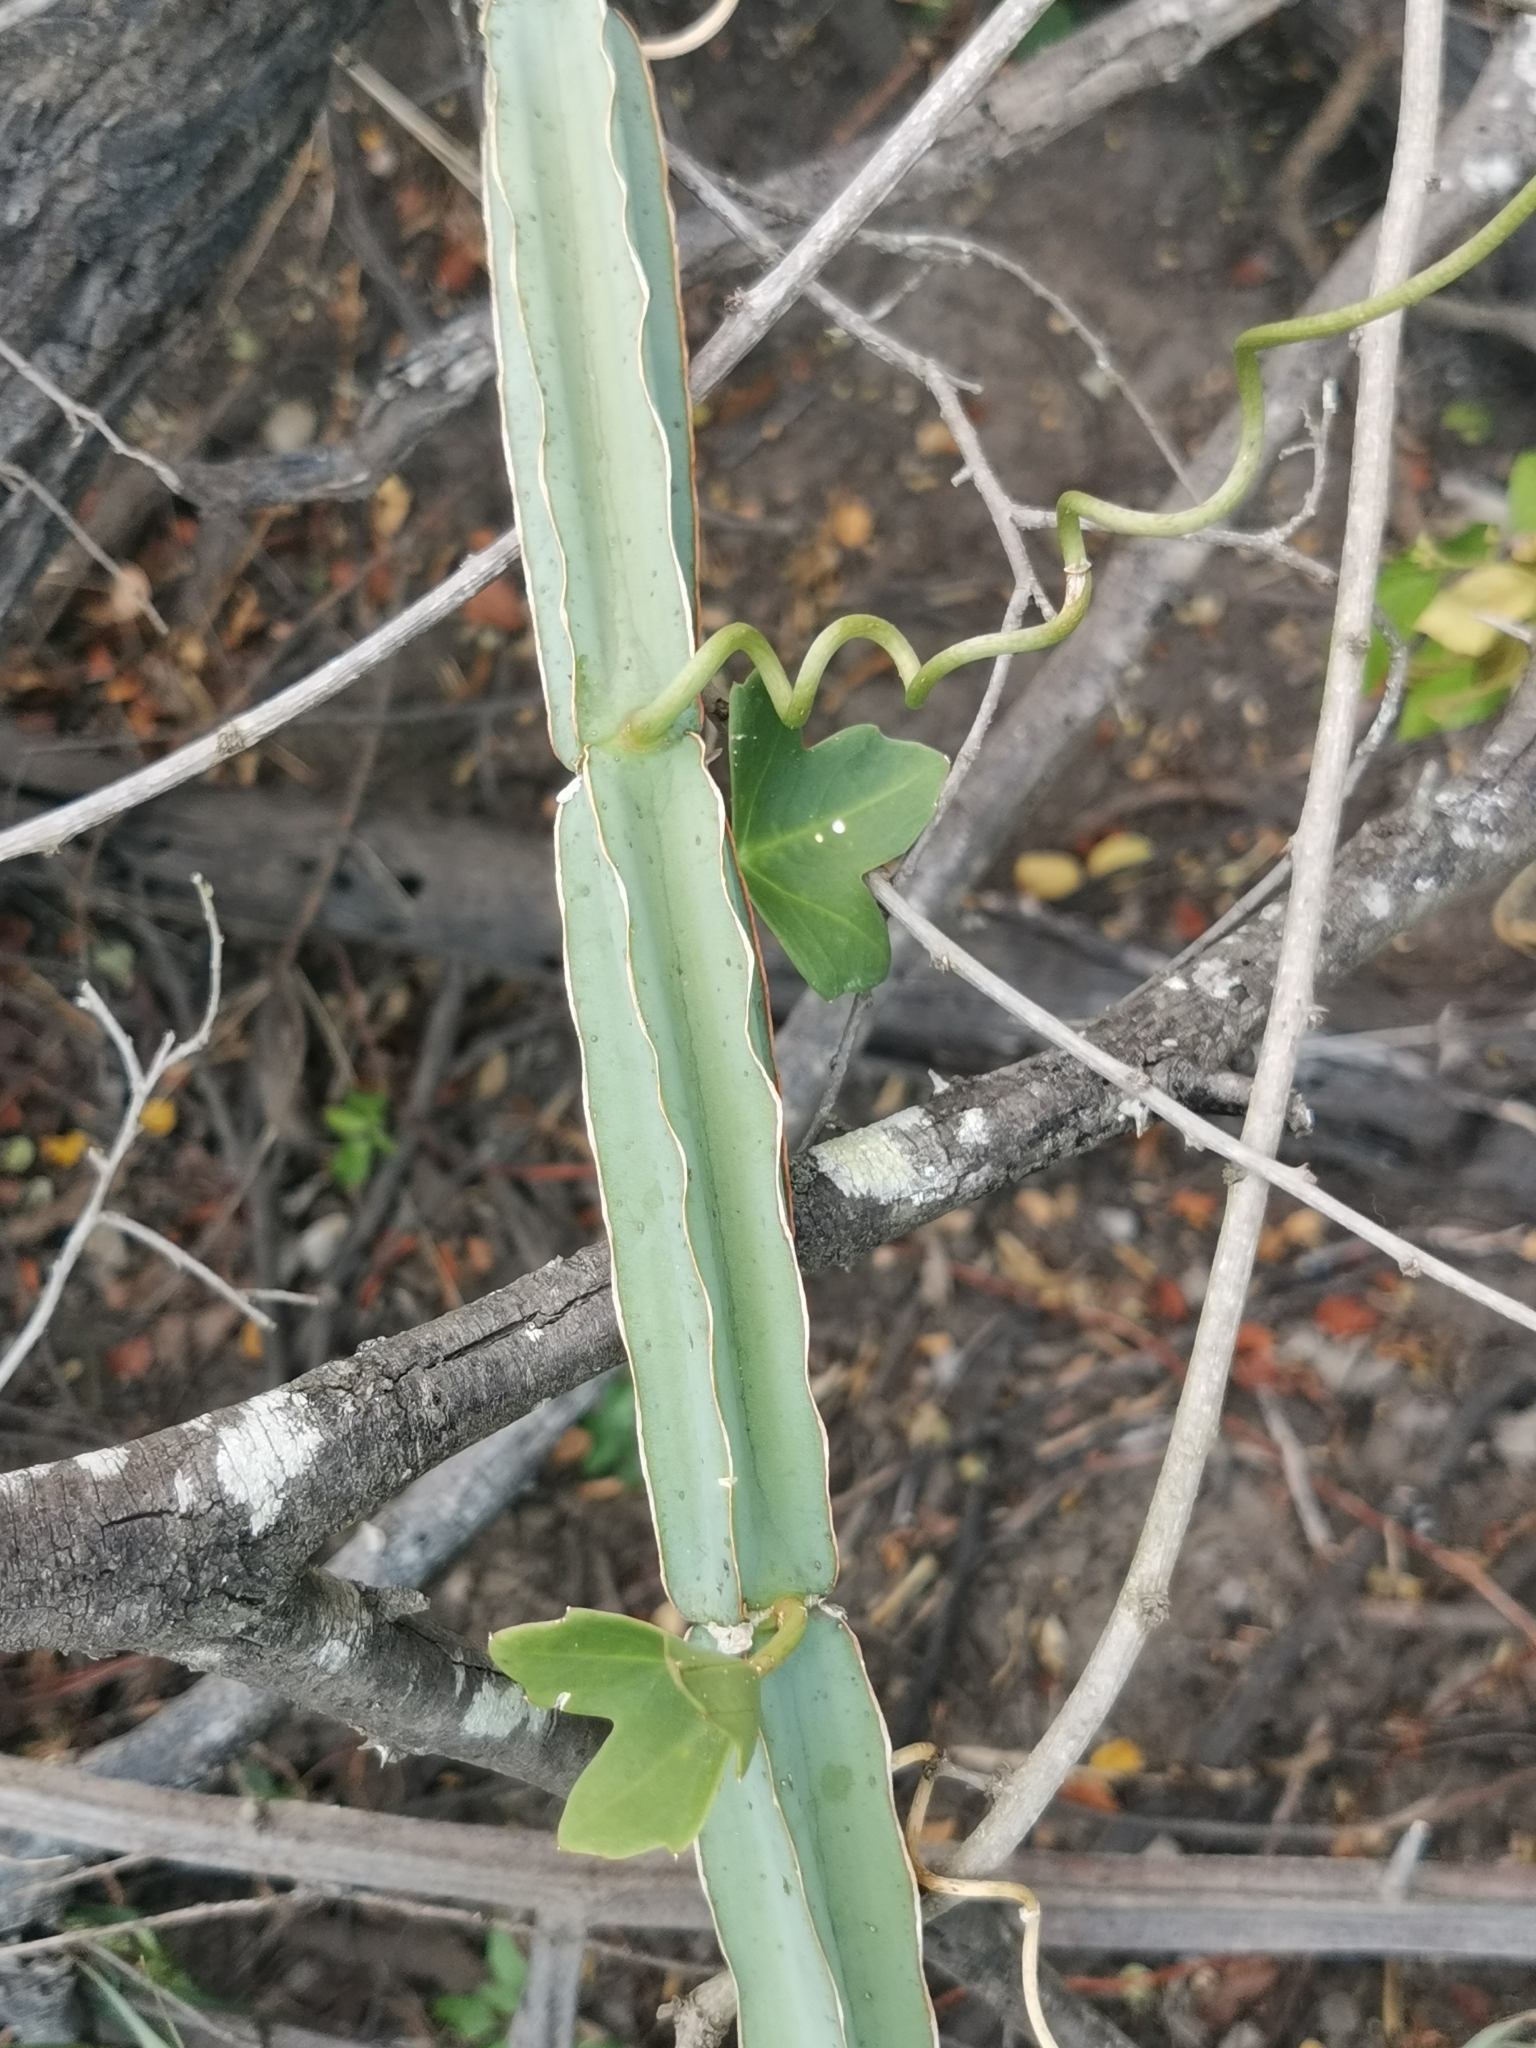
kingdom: Plantae
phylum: Tracheophyta
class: Magnoliopsida
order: Vitales
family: Vitaceae
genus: Cissus
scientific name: Cissus quadrangularis
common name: Veldt-grape
